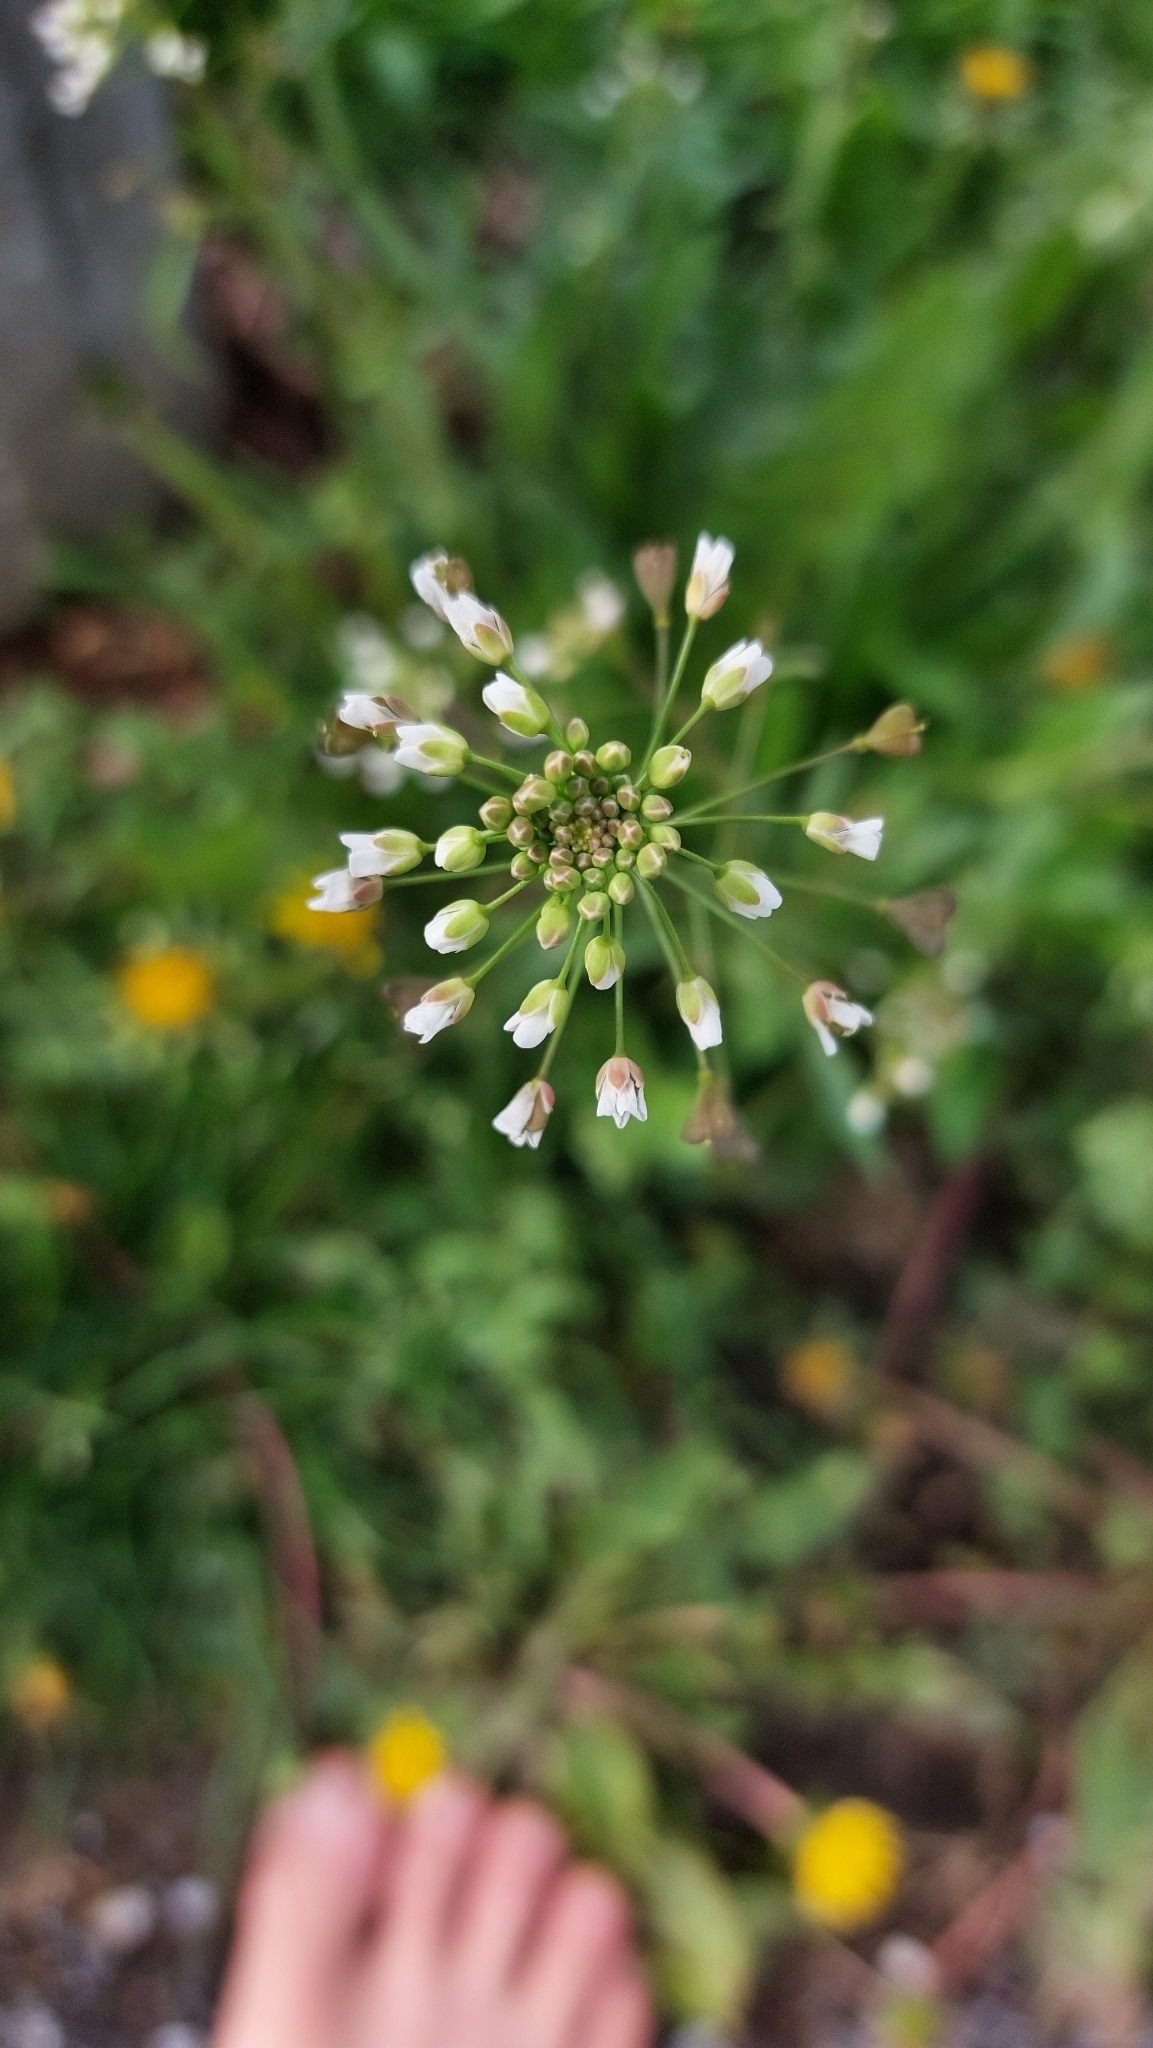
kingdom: Plantae
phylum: Tracheophyta
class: Magnoliopsida
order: Brassicales
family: Brassicaceae
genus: Capsella
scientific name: Capsella bursa-pastoris
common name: Shepherd's purse
